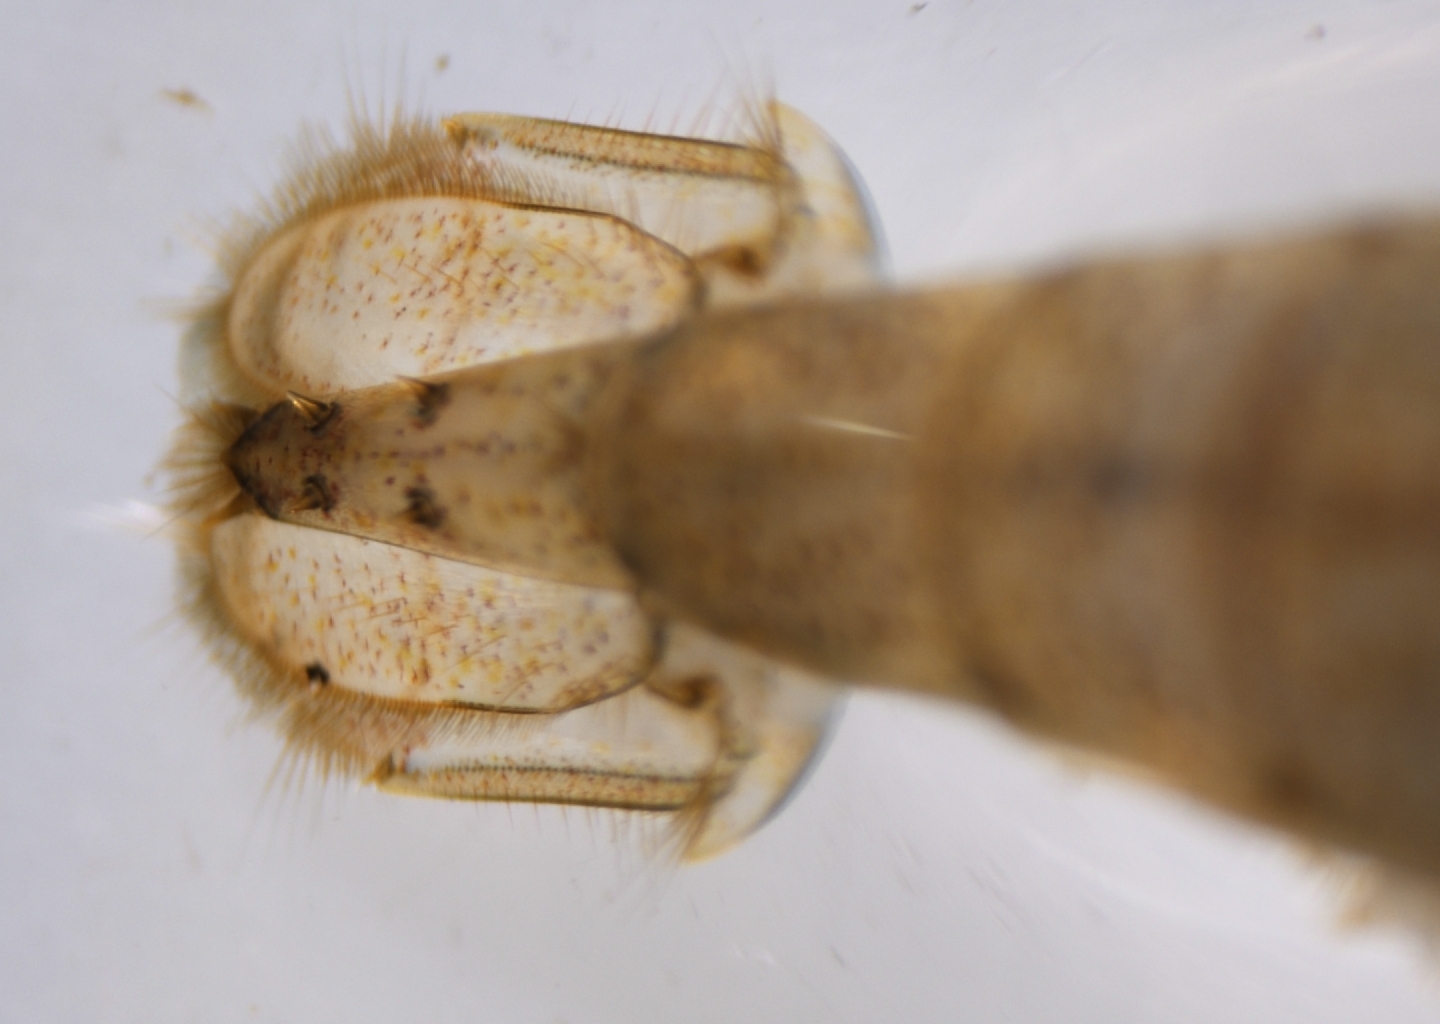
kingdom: Animalia
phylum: Arthropoda
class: Malacostraca
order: Decapoda
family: Palaemonidae
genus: Macrobrachium
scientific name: Macrobrachium aemulum
